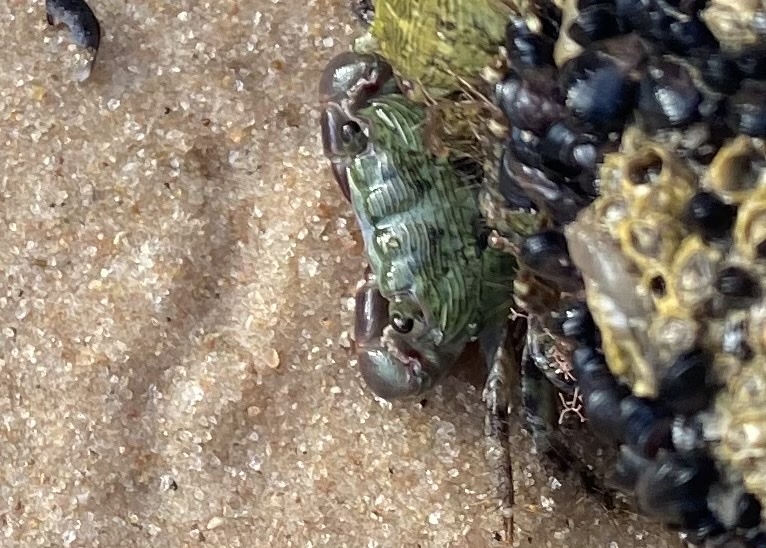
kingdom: Animalia
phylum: Arthropoda
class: Malacostraca
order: Decapoda
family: Grapsidae
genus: Pachygrapsus
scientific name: Pachygrapsus transversus
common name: Mottled shore crab
